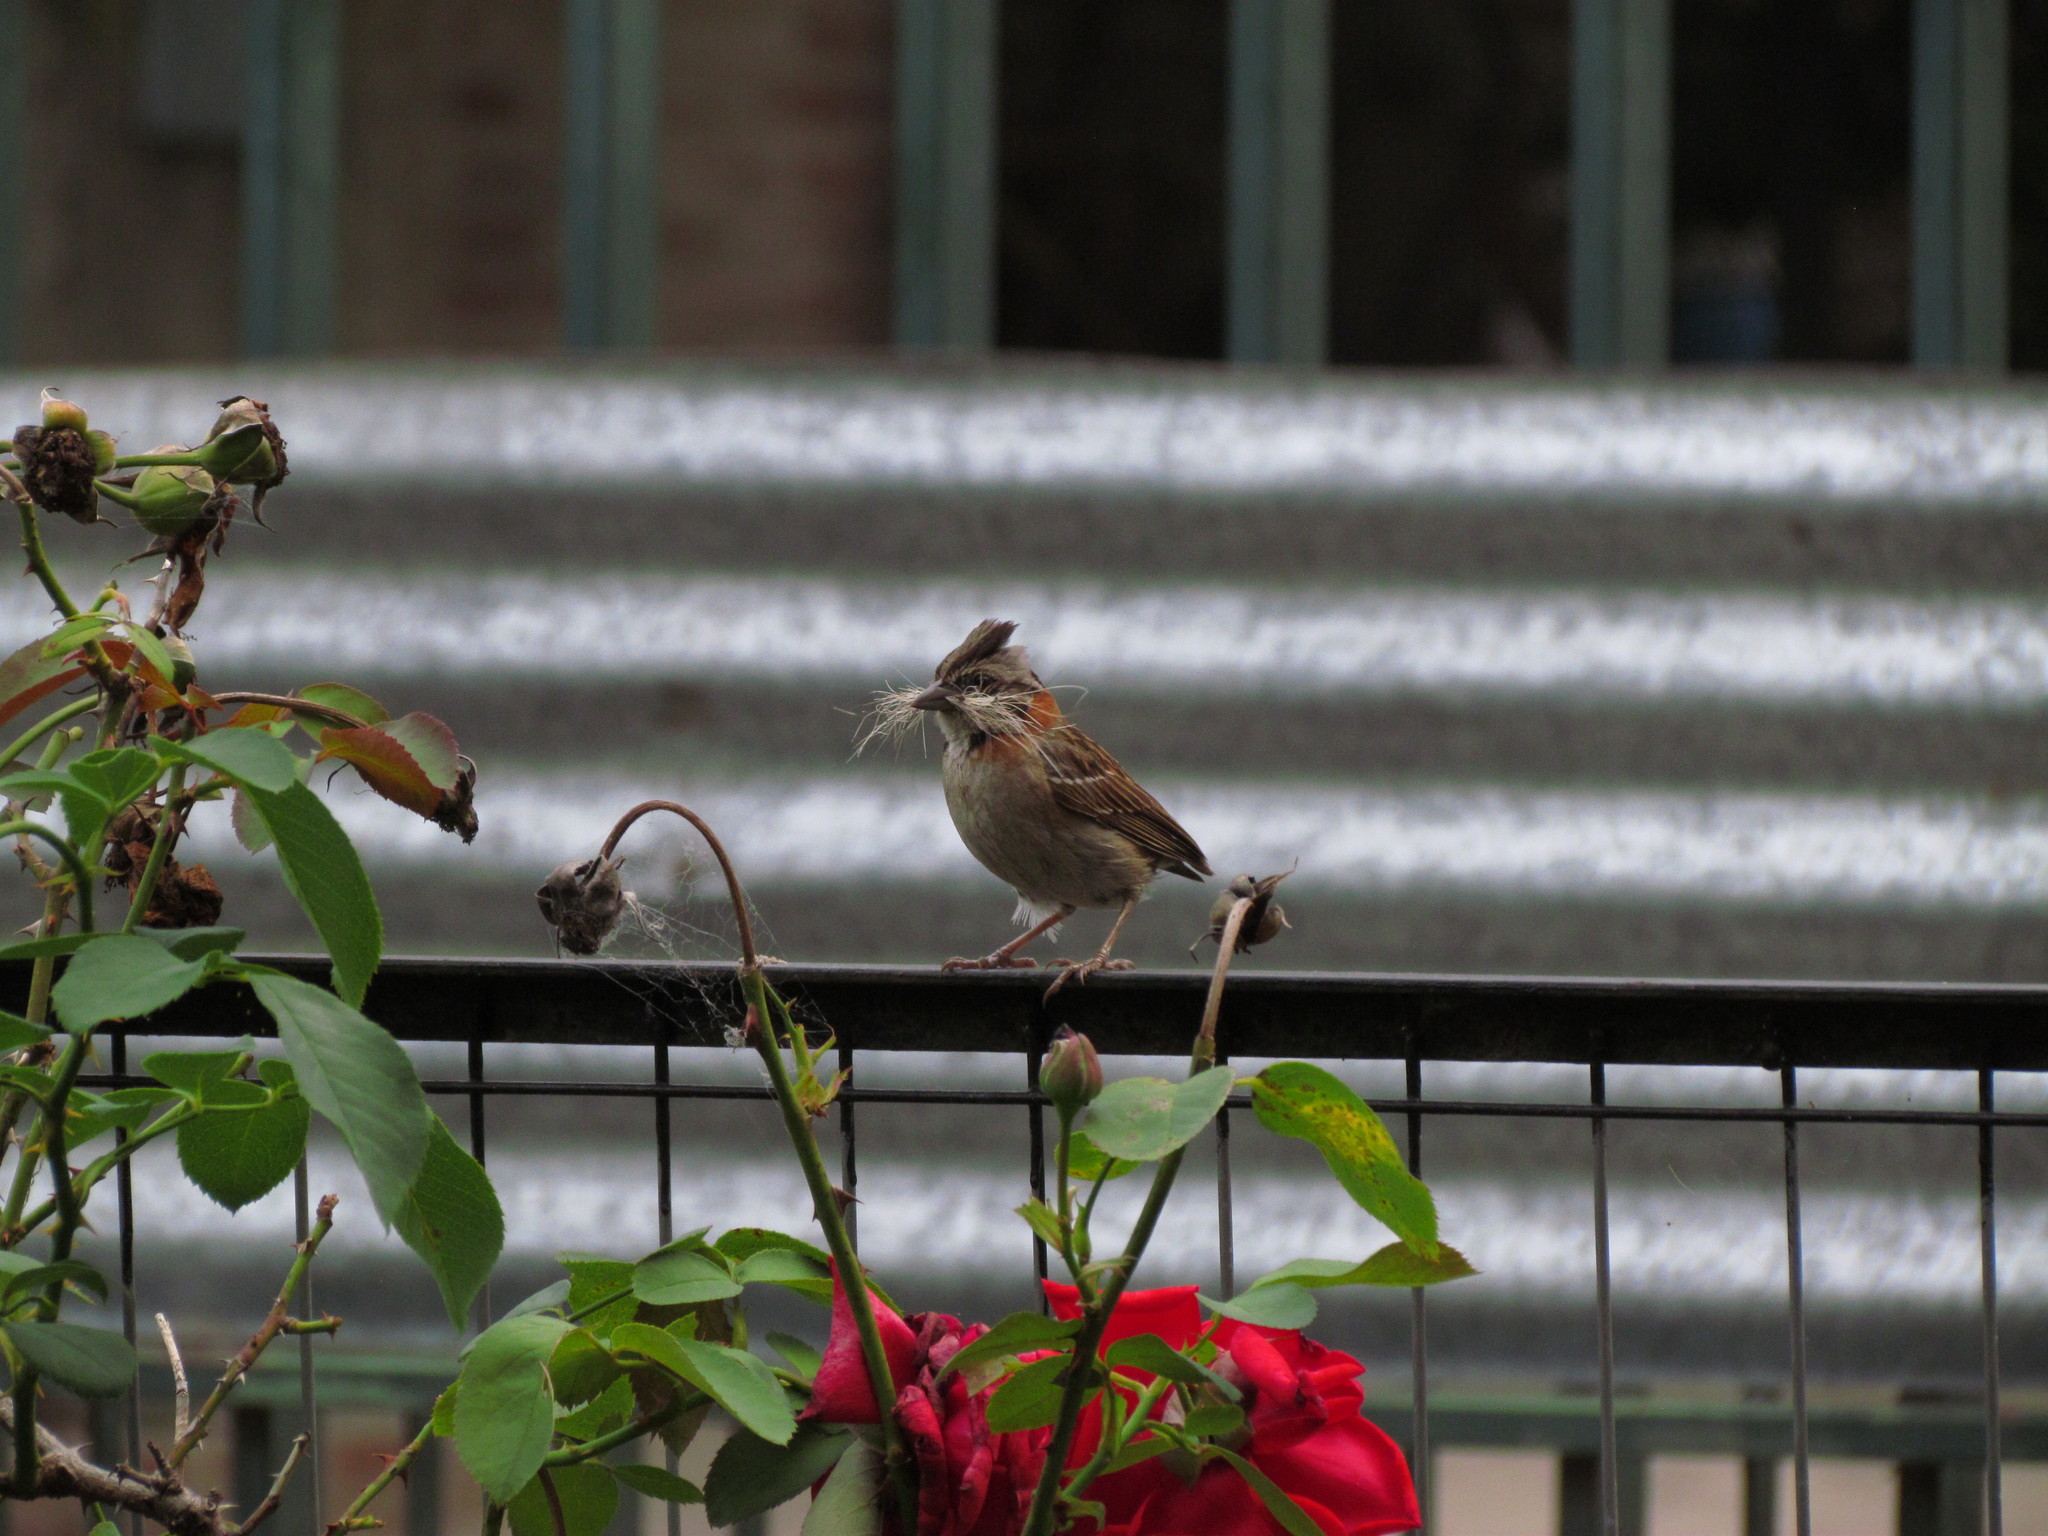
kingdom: Animalia
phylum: Chordata
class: Aves
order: Passeriformes
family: Passerellidae
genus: Zonotrichia
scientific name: Zonotrichia capensis
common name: Rufous-collared sparrow
